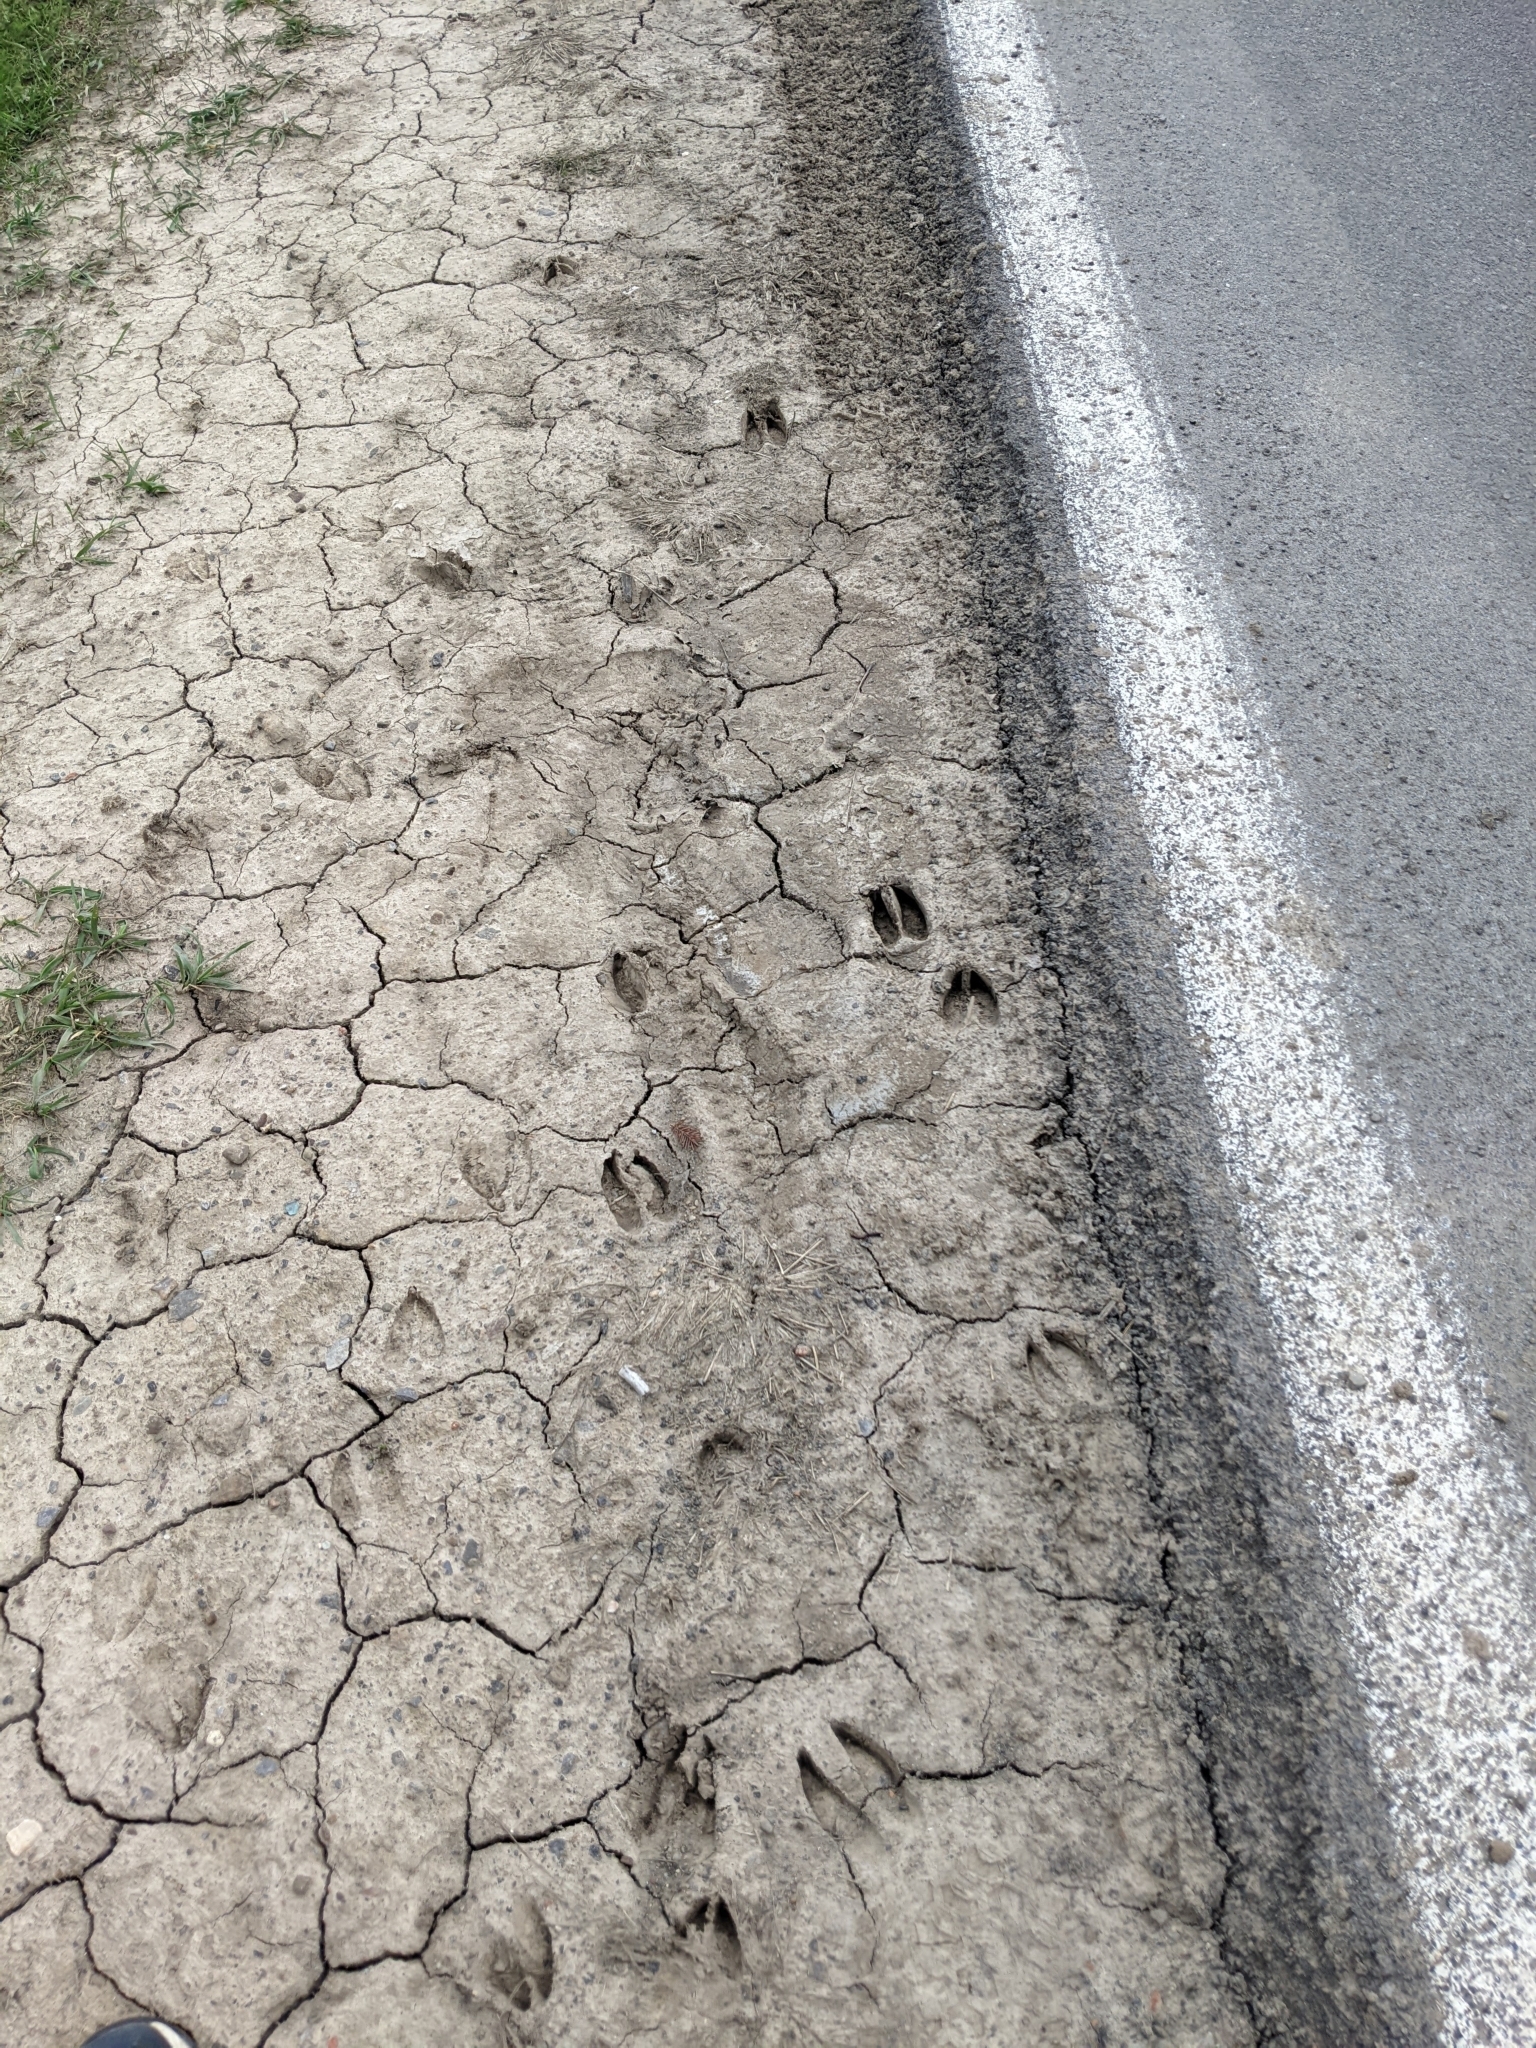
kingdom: Animalia
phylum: Chordata
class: Mammalia
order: Artiodactyla
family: Cervidae
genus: Odocoileus
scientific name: Odocoileus virginianus
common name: White-tailed deer
